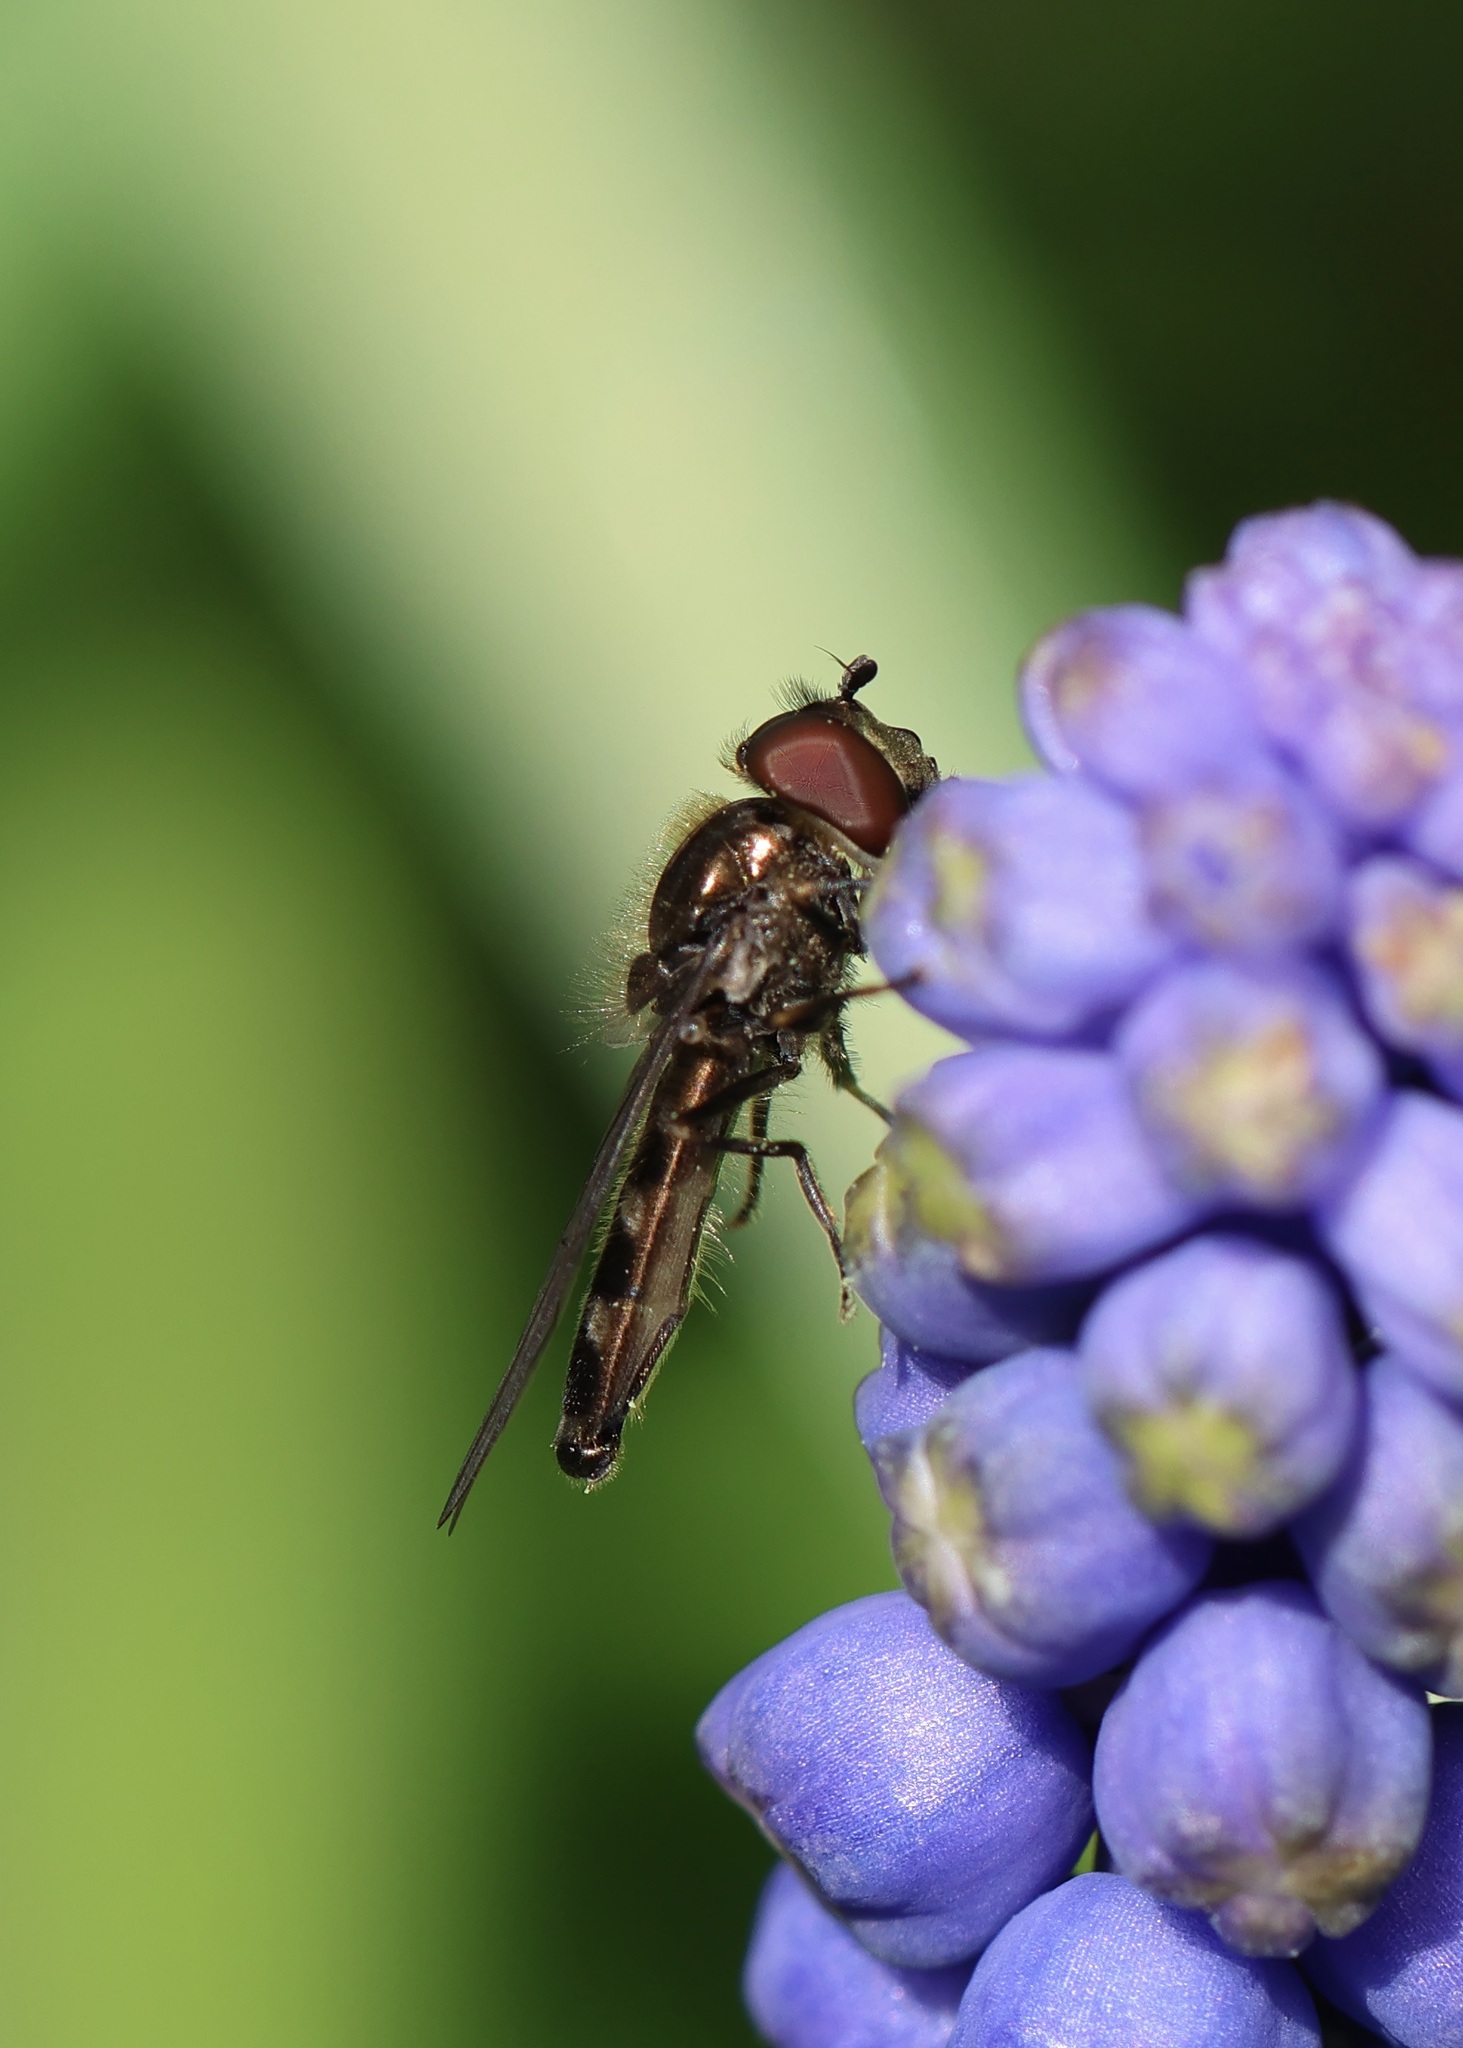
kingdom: Animalia
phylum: Arthropoda
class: Insecta
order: Diptera
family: Syrphidae
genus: Platycheirus
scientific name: Platycheirus albimanus
